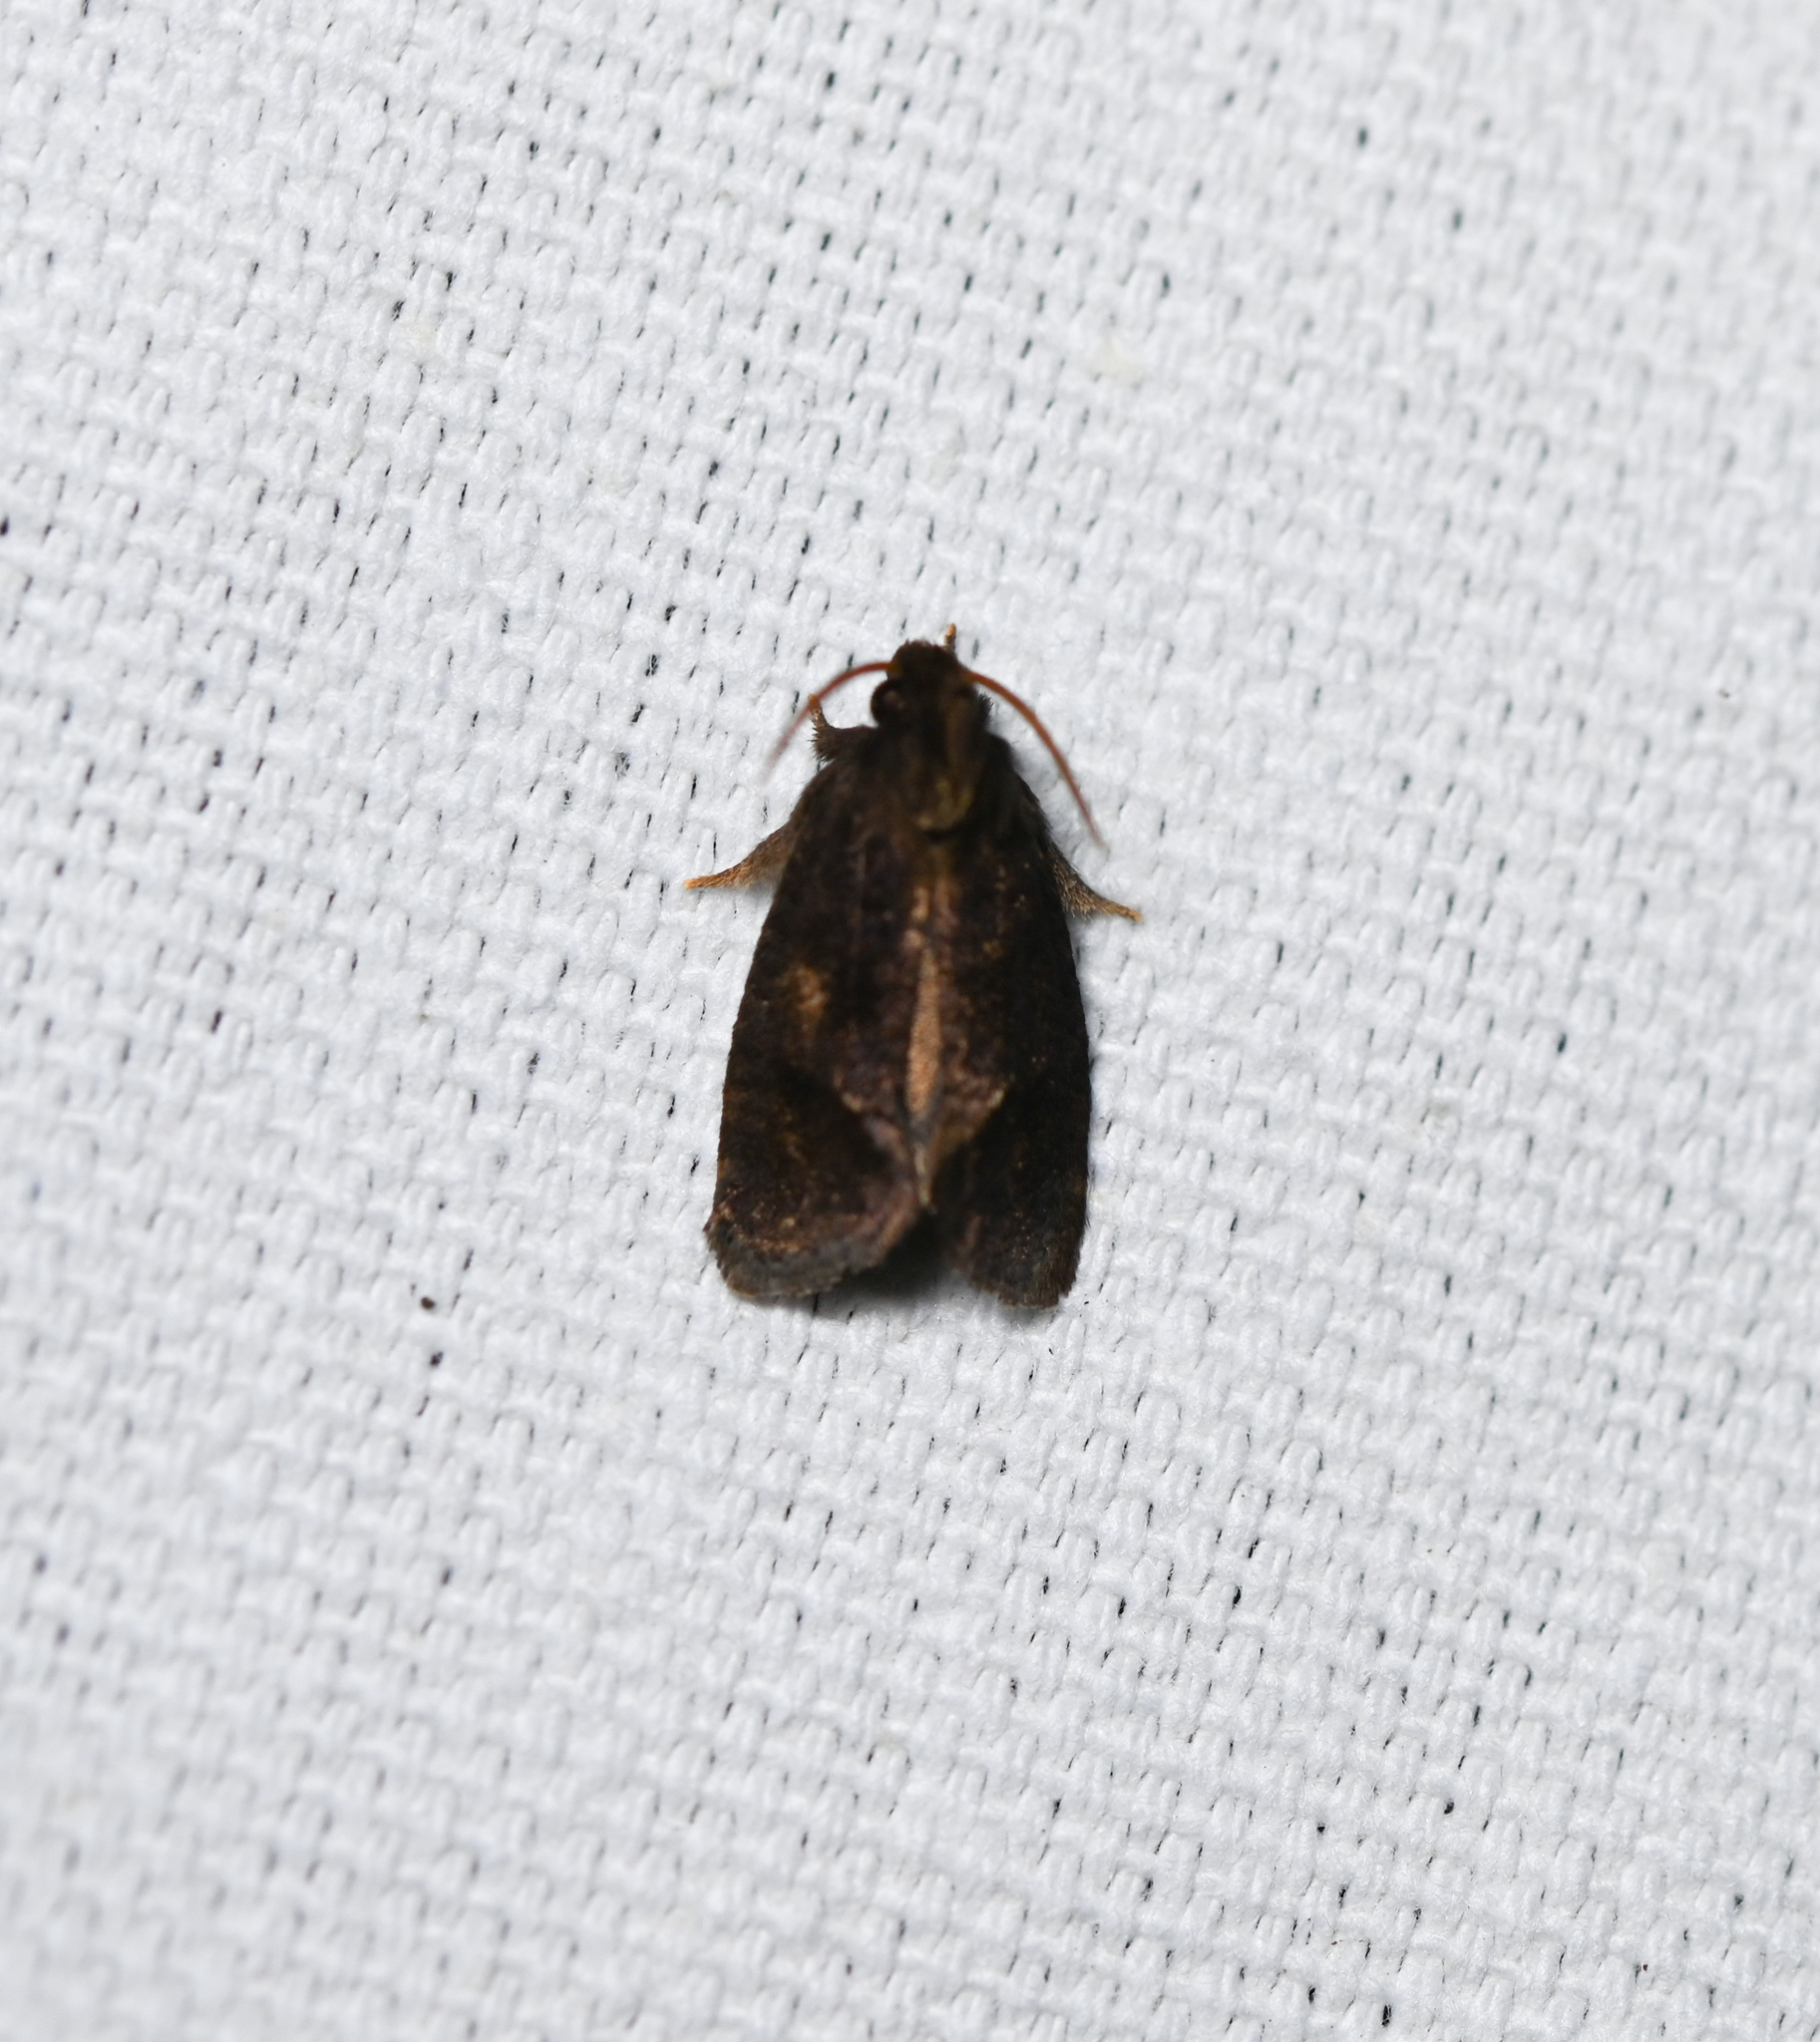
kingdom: Animalia
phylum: Arthropoda
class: Insecta
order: Lepidoptera
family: Tineidae
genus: Acrolophus
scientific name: Acrolophus texanella
